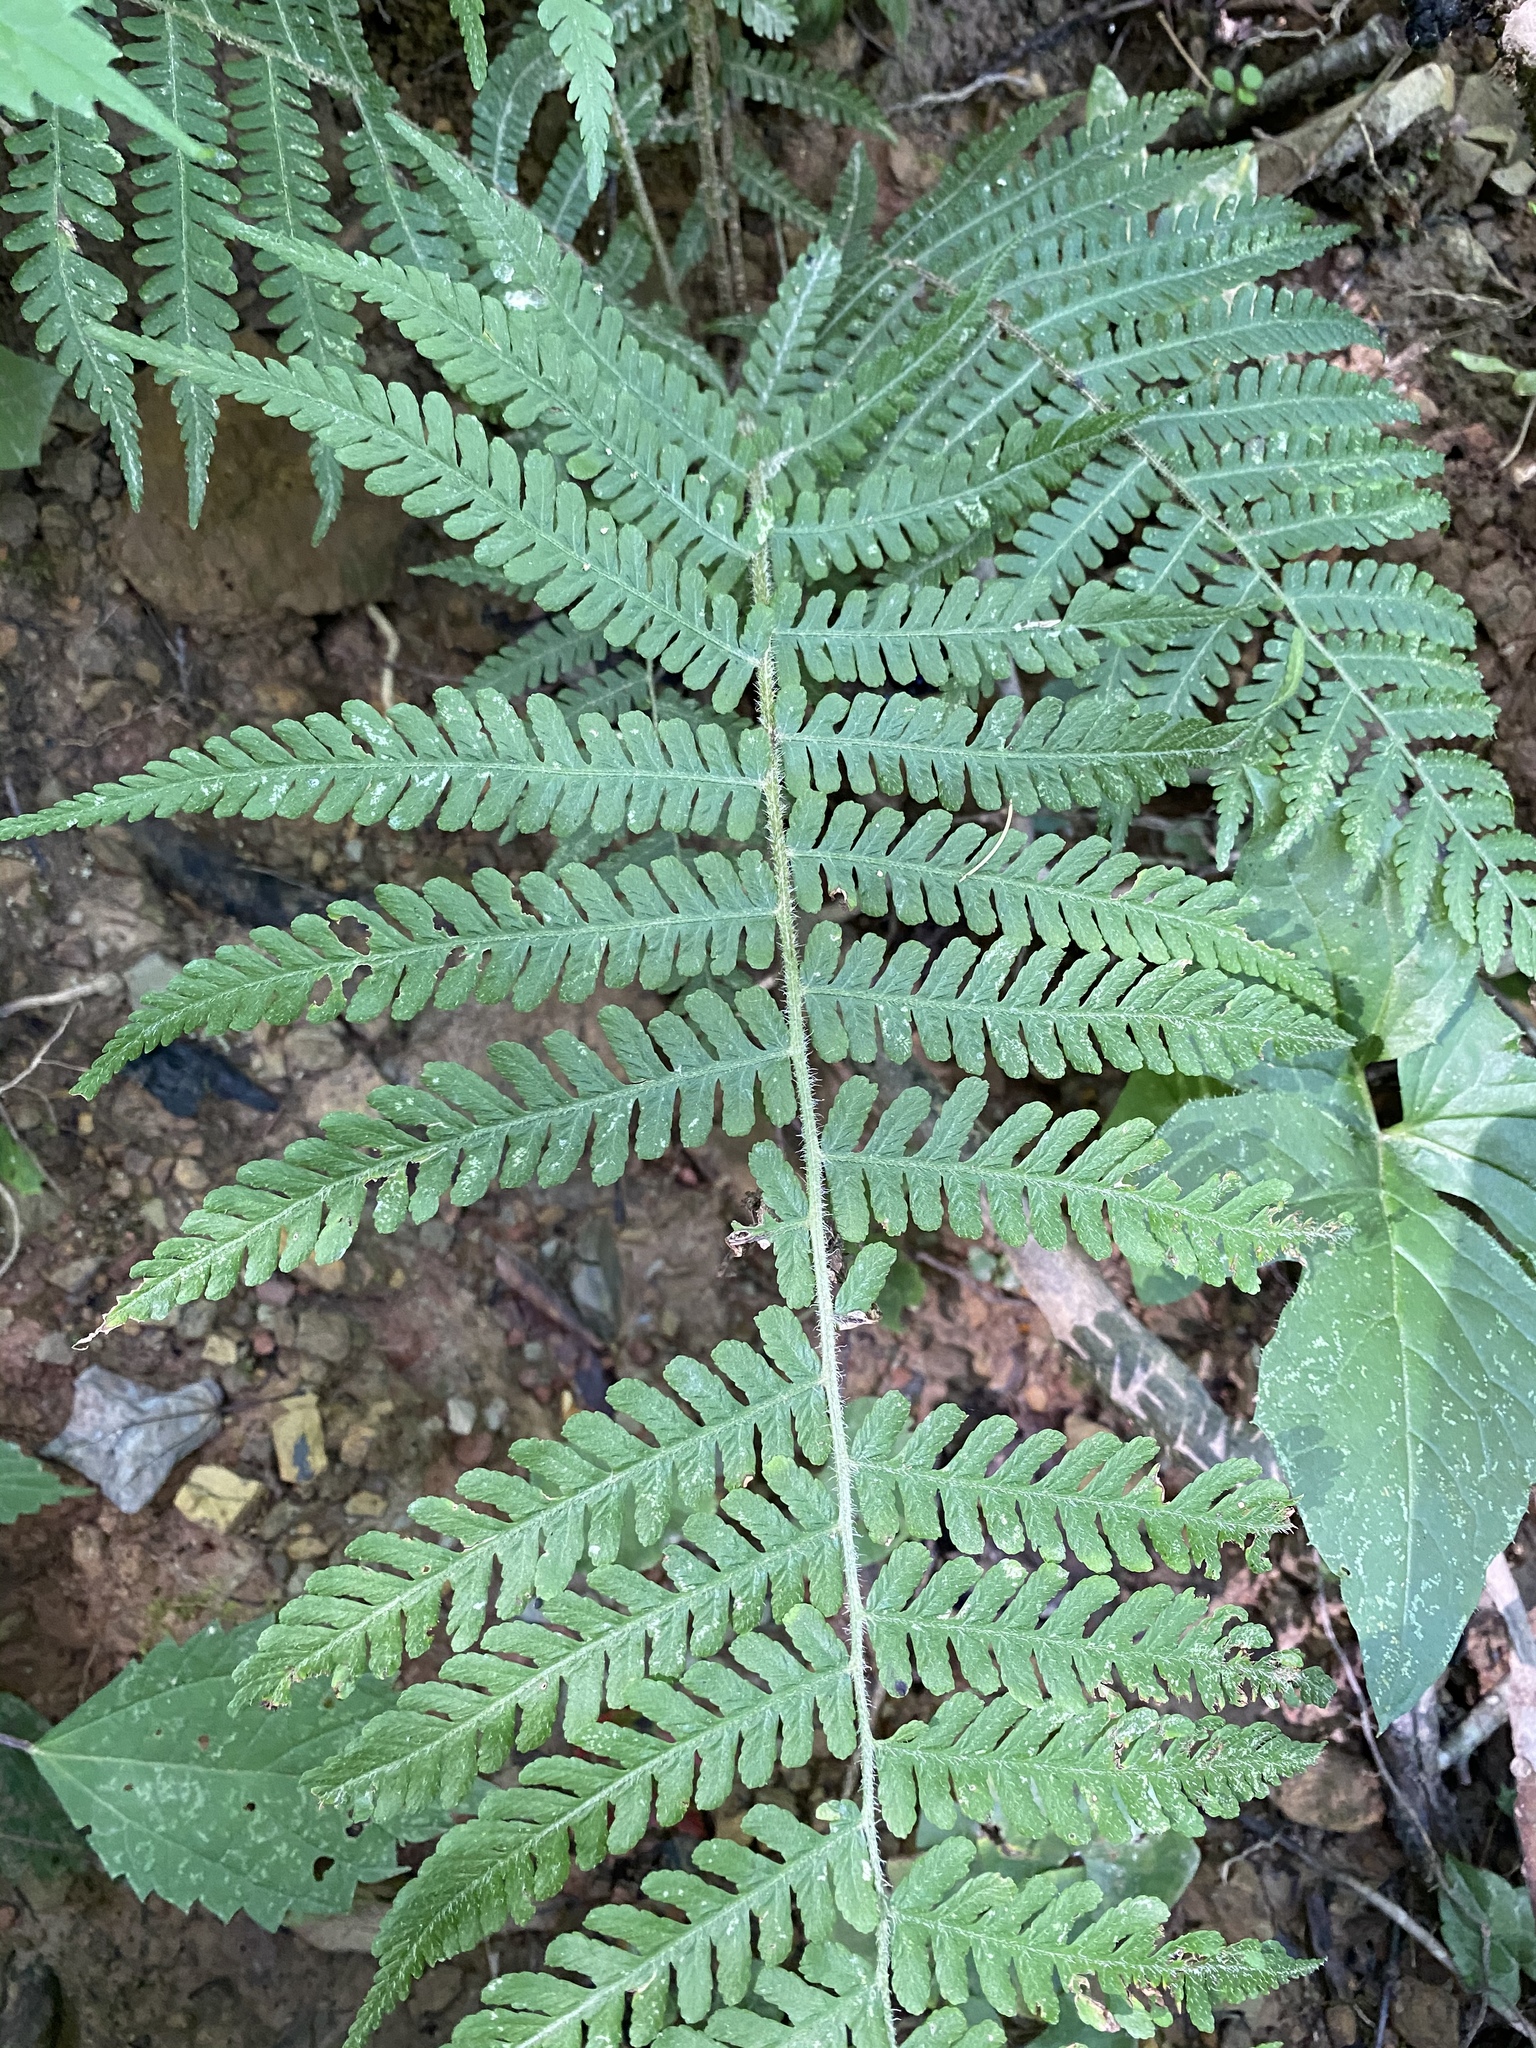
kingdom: Plantae
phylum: Tracheophyta
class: Polypodiopsida
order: Polypodiales
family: Athyriaceae
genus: Deparia
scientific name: Deparia acrostichoides
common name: Silver false spleenwort
